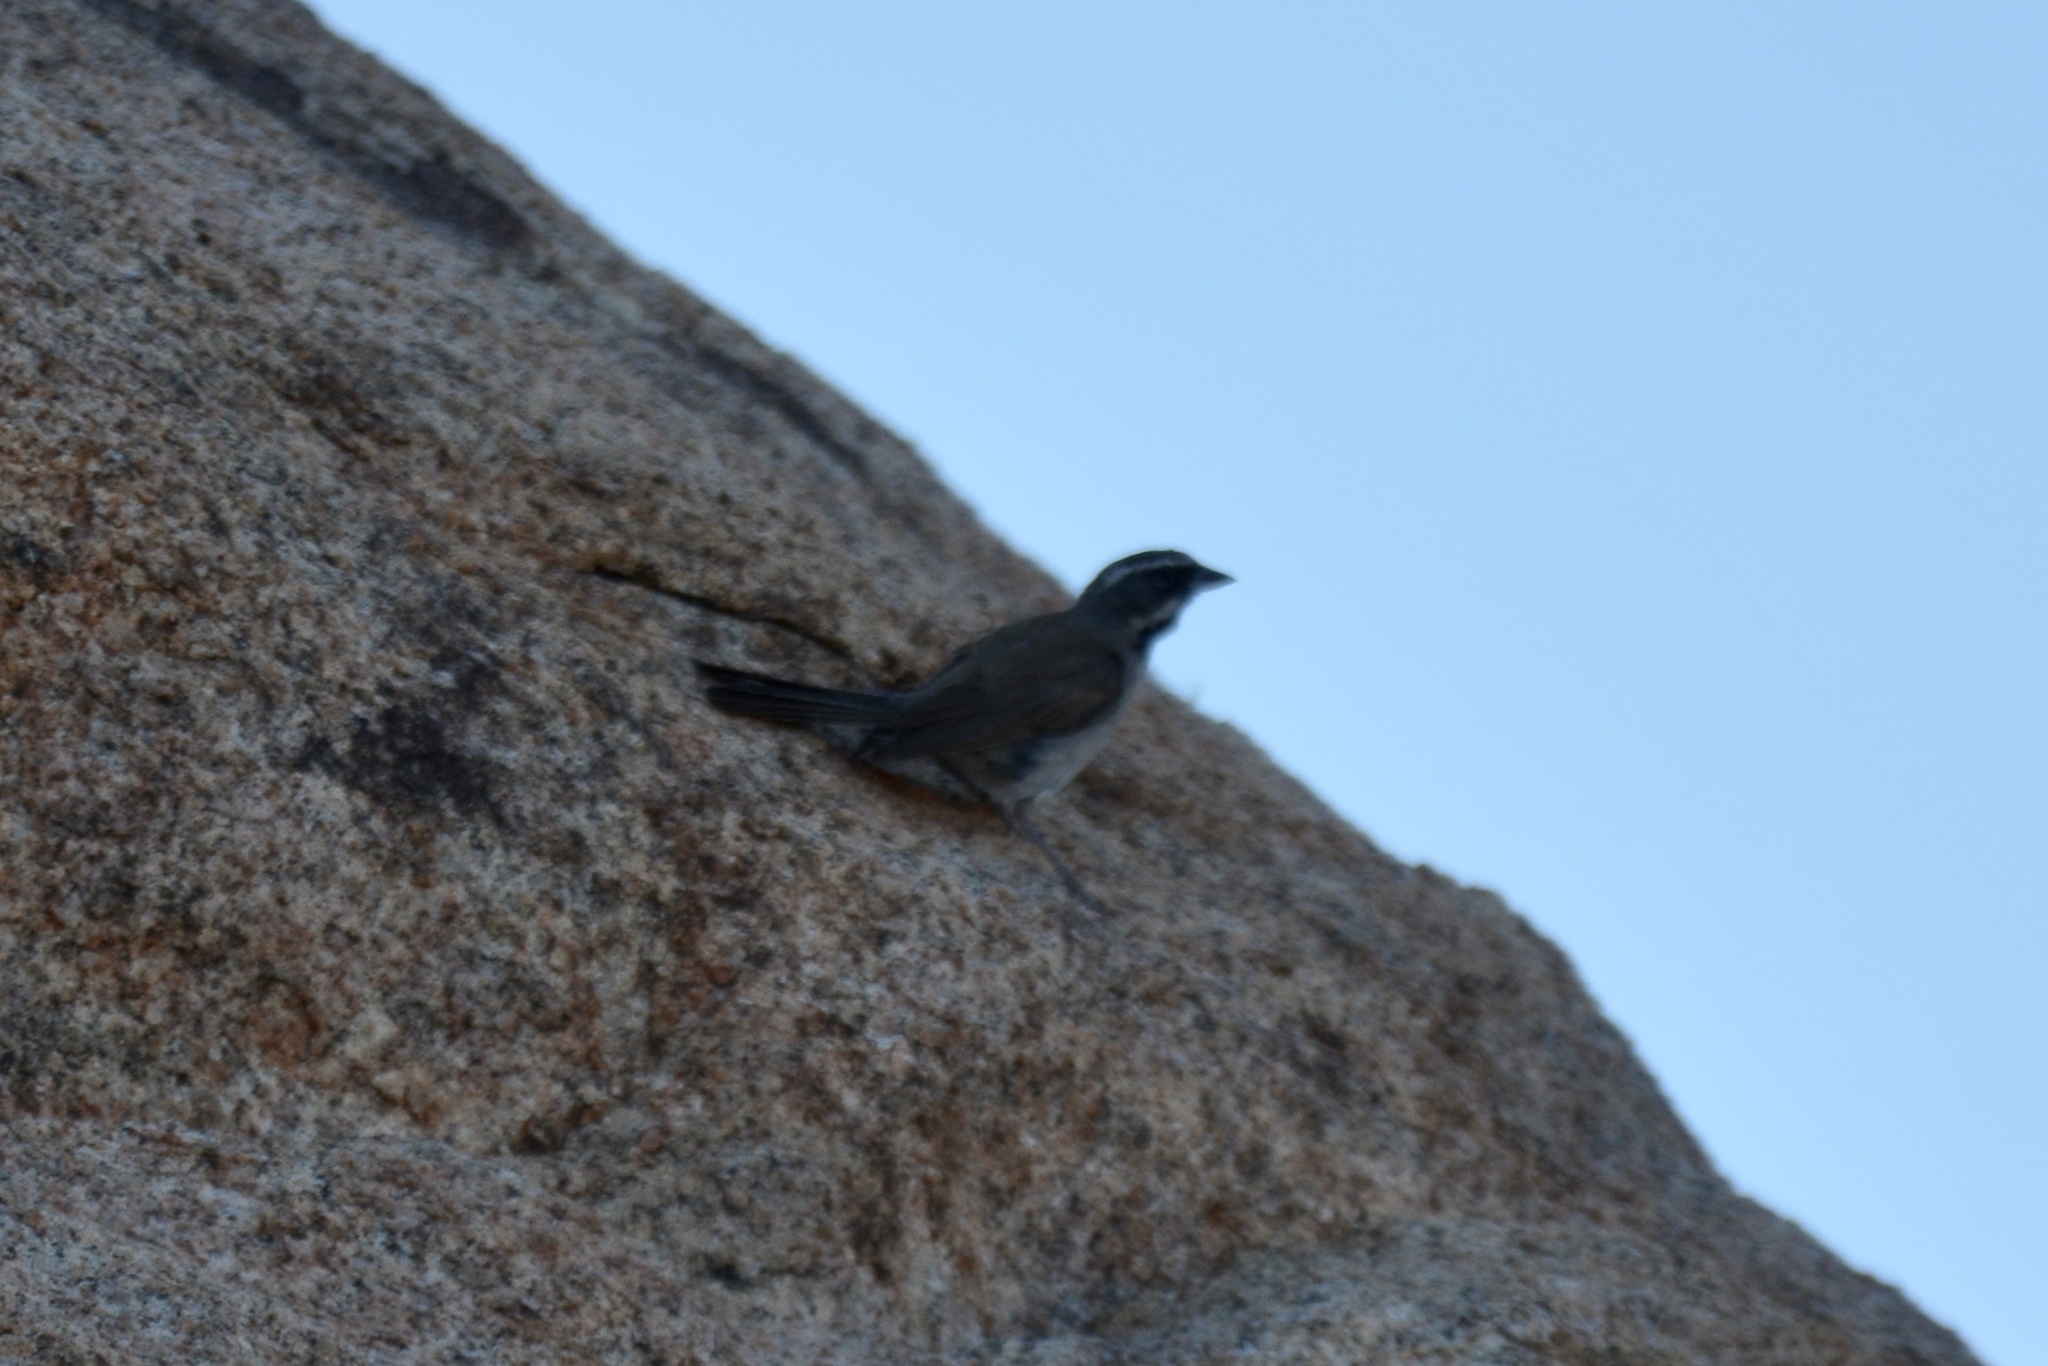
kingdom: Animalia
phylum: Chordata
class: Aves
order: Passeriformes
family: Passerellidae
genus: Amphispiza
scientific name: Amphispiza bilineata
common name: Black-throated sparrow
